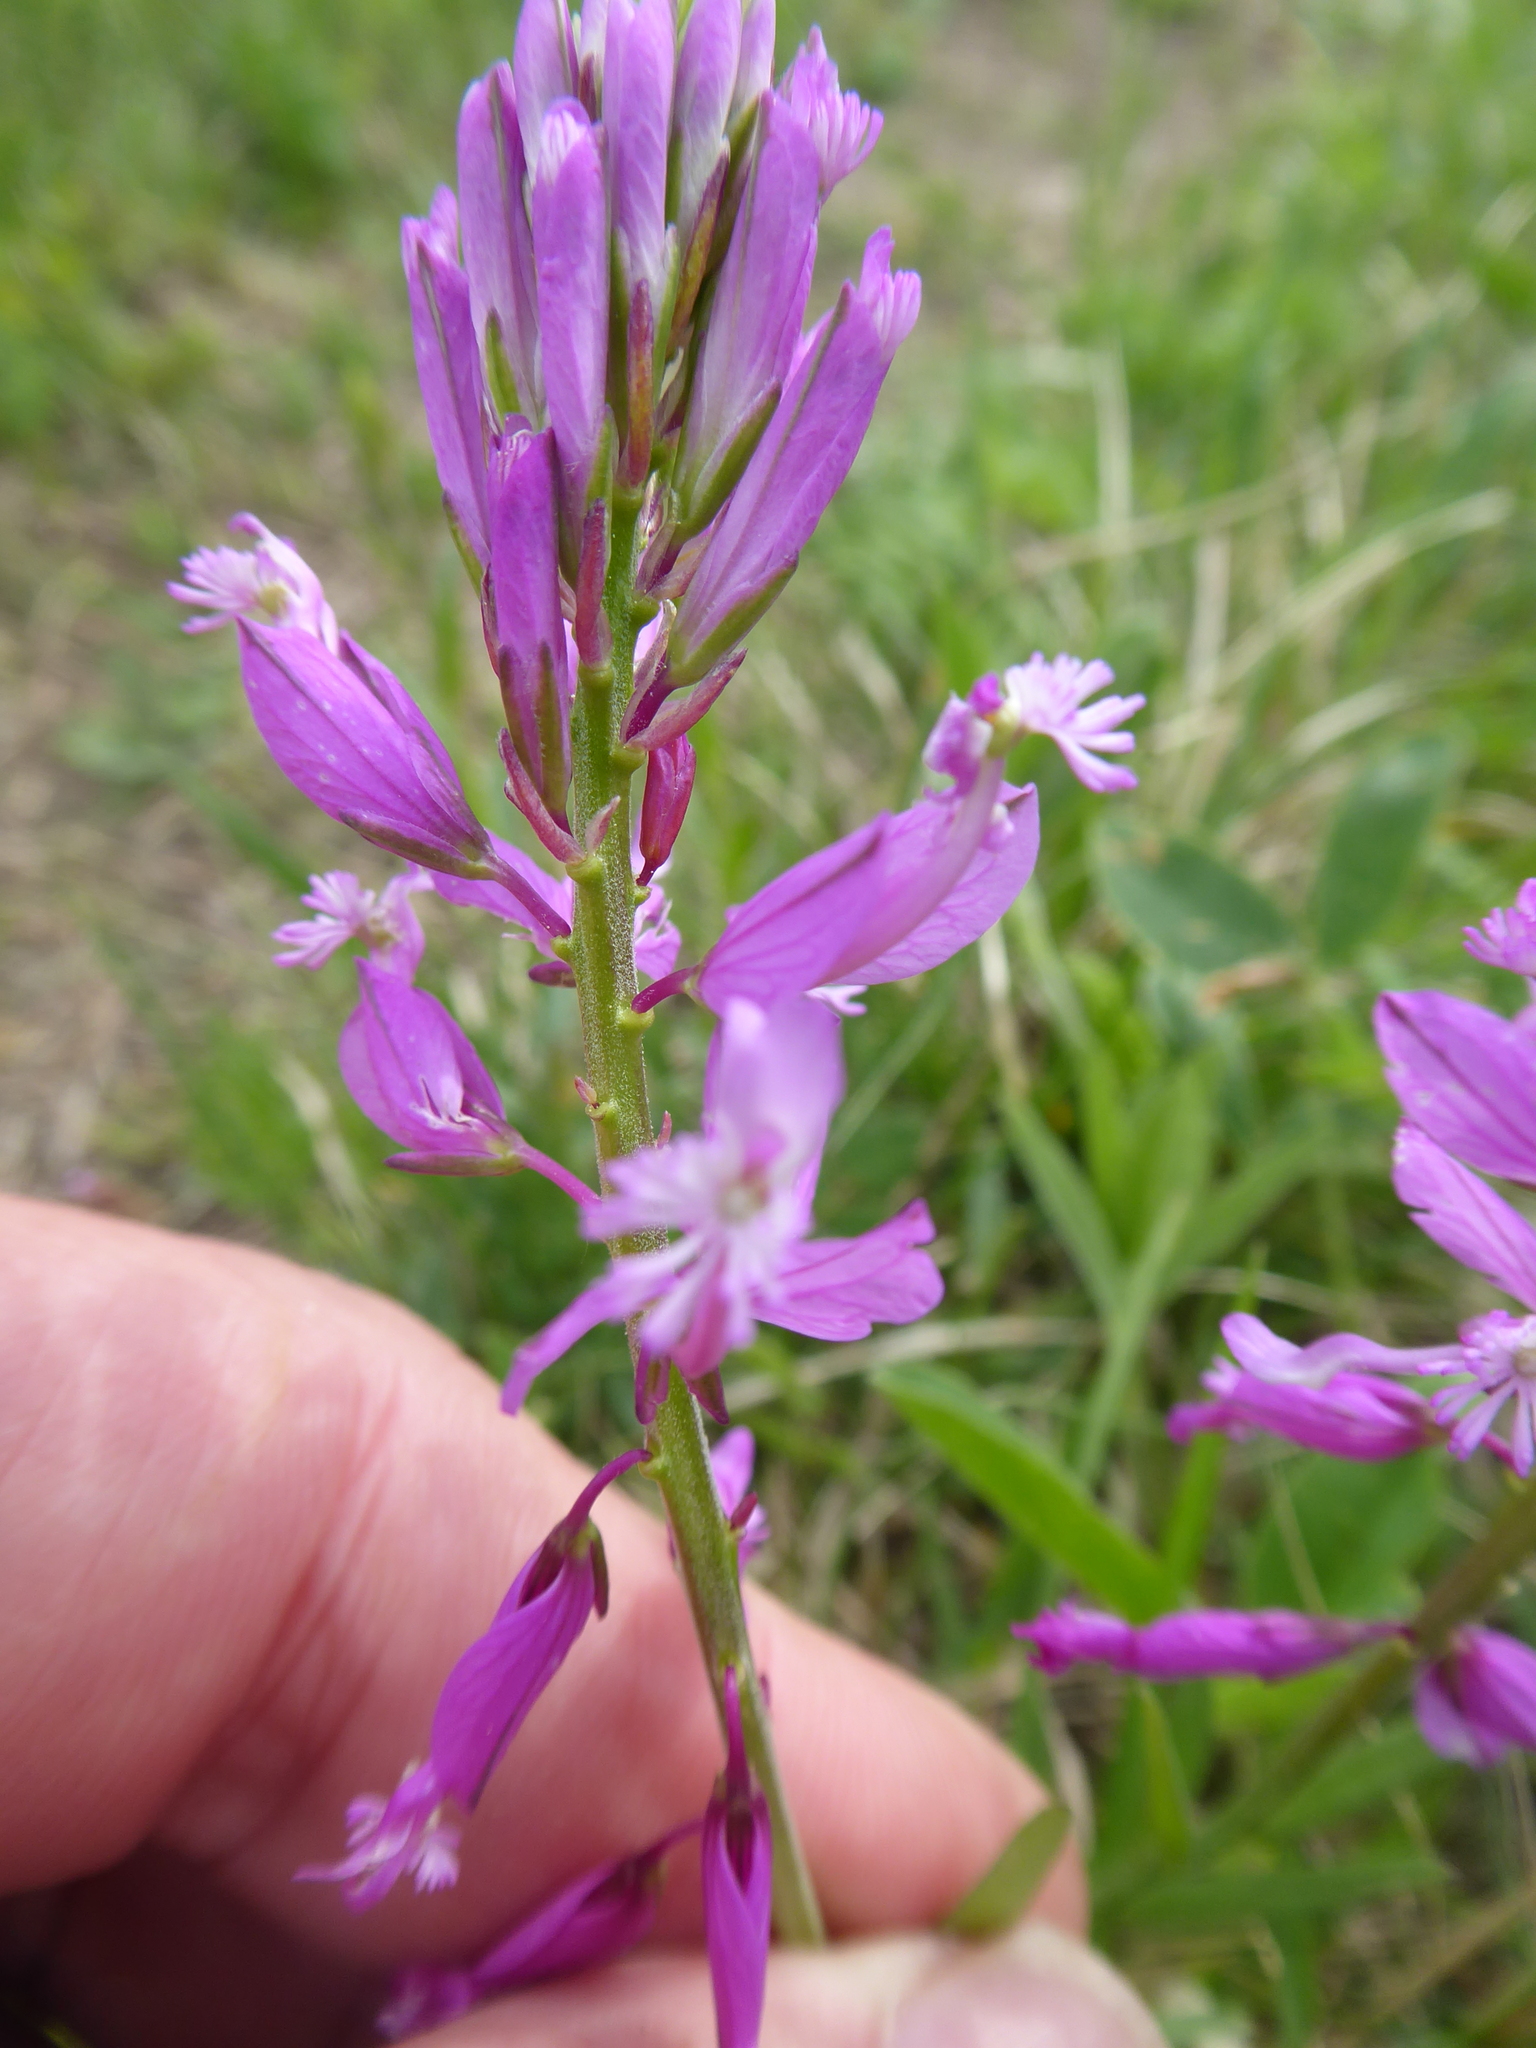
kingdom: Plantae
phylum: Tracheophyta
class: Magnoliopsida
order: Fabales
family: Polygalaceae
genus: Polygala
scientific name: Polygala major
